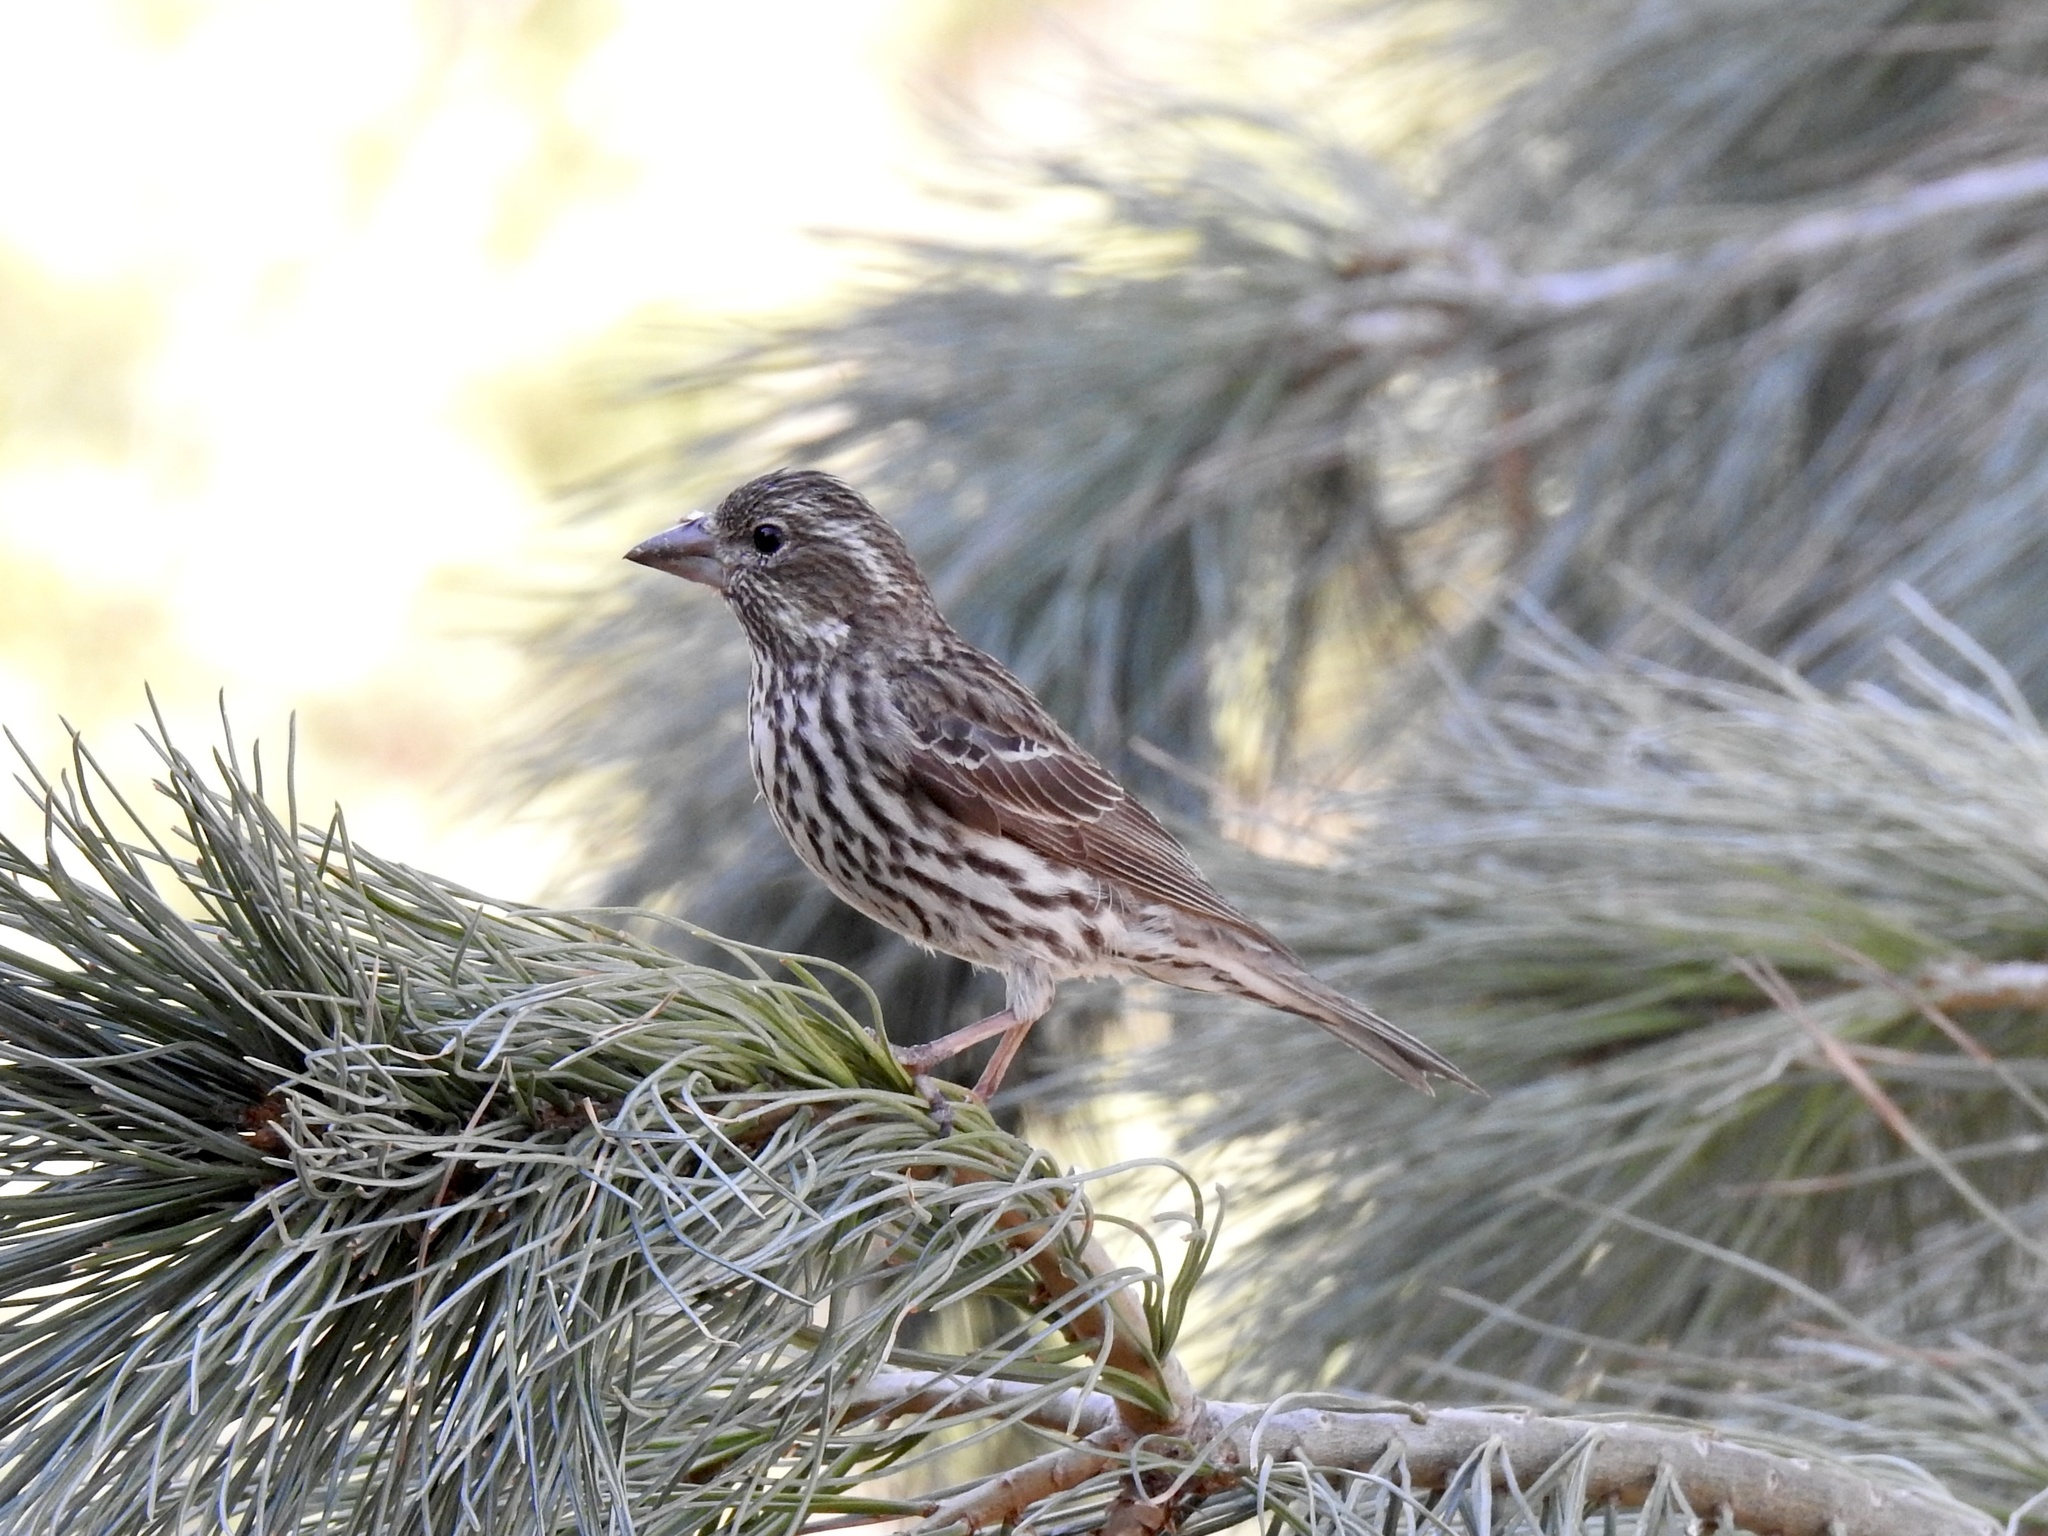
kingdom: Animalia
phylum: Chordata
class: Aves
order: Passeriformes
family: Fringillidae
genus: Haemorhous
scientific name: Haemorhous cassinii
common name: Cassin's finch
